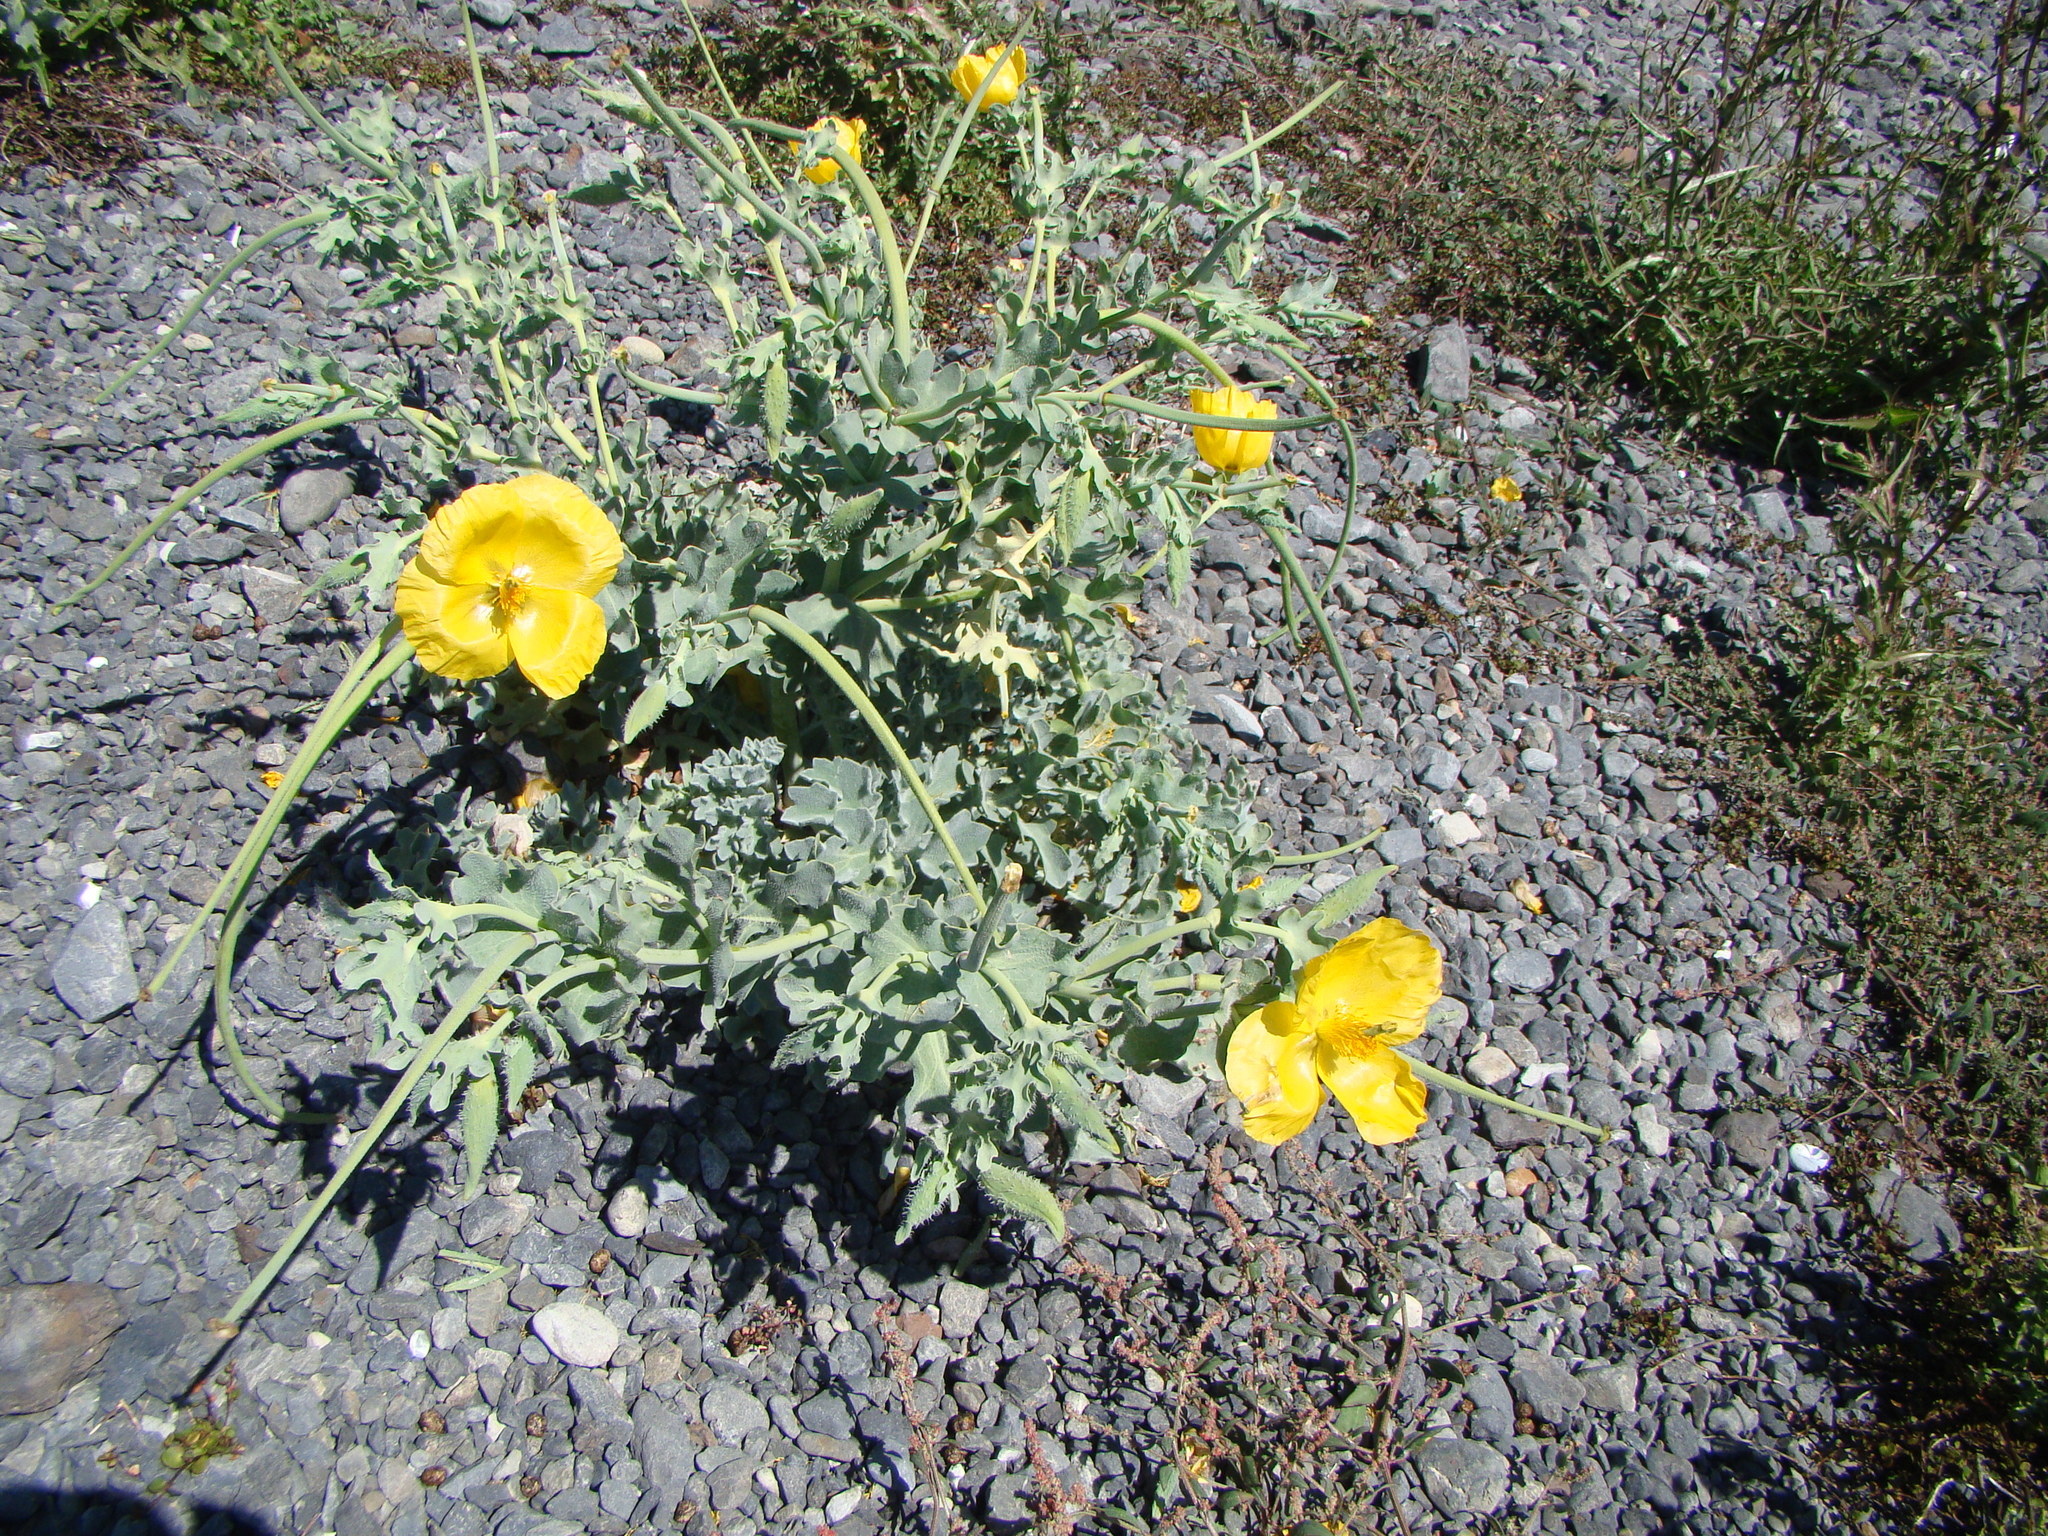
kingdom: Plantae
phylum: Tracheophyta
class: Magnoliopsida
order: Ranunculales
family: Papaveraceae
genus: Glaucium
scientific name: Glaucium flavum
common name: Yellow horned-poppy
